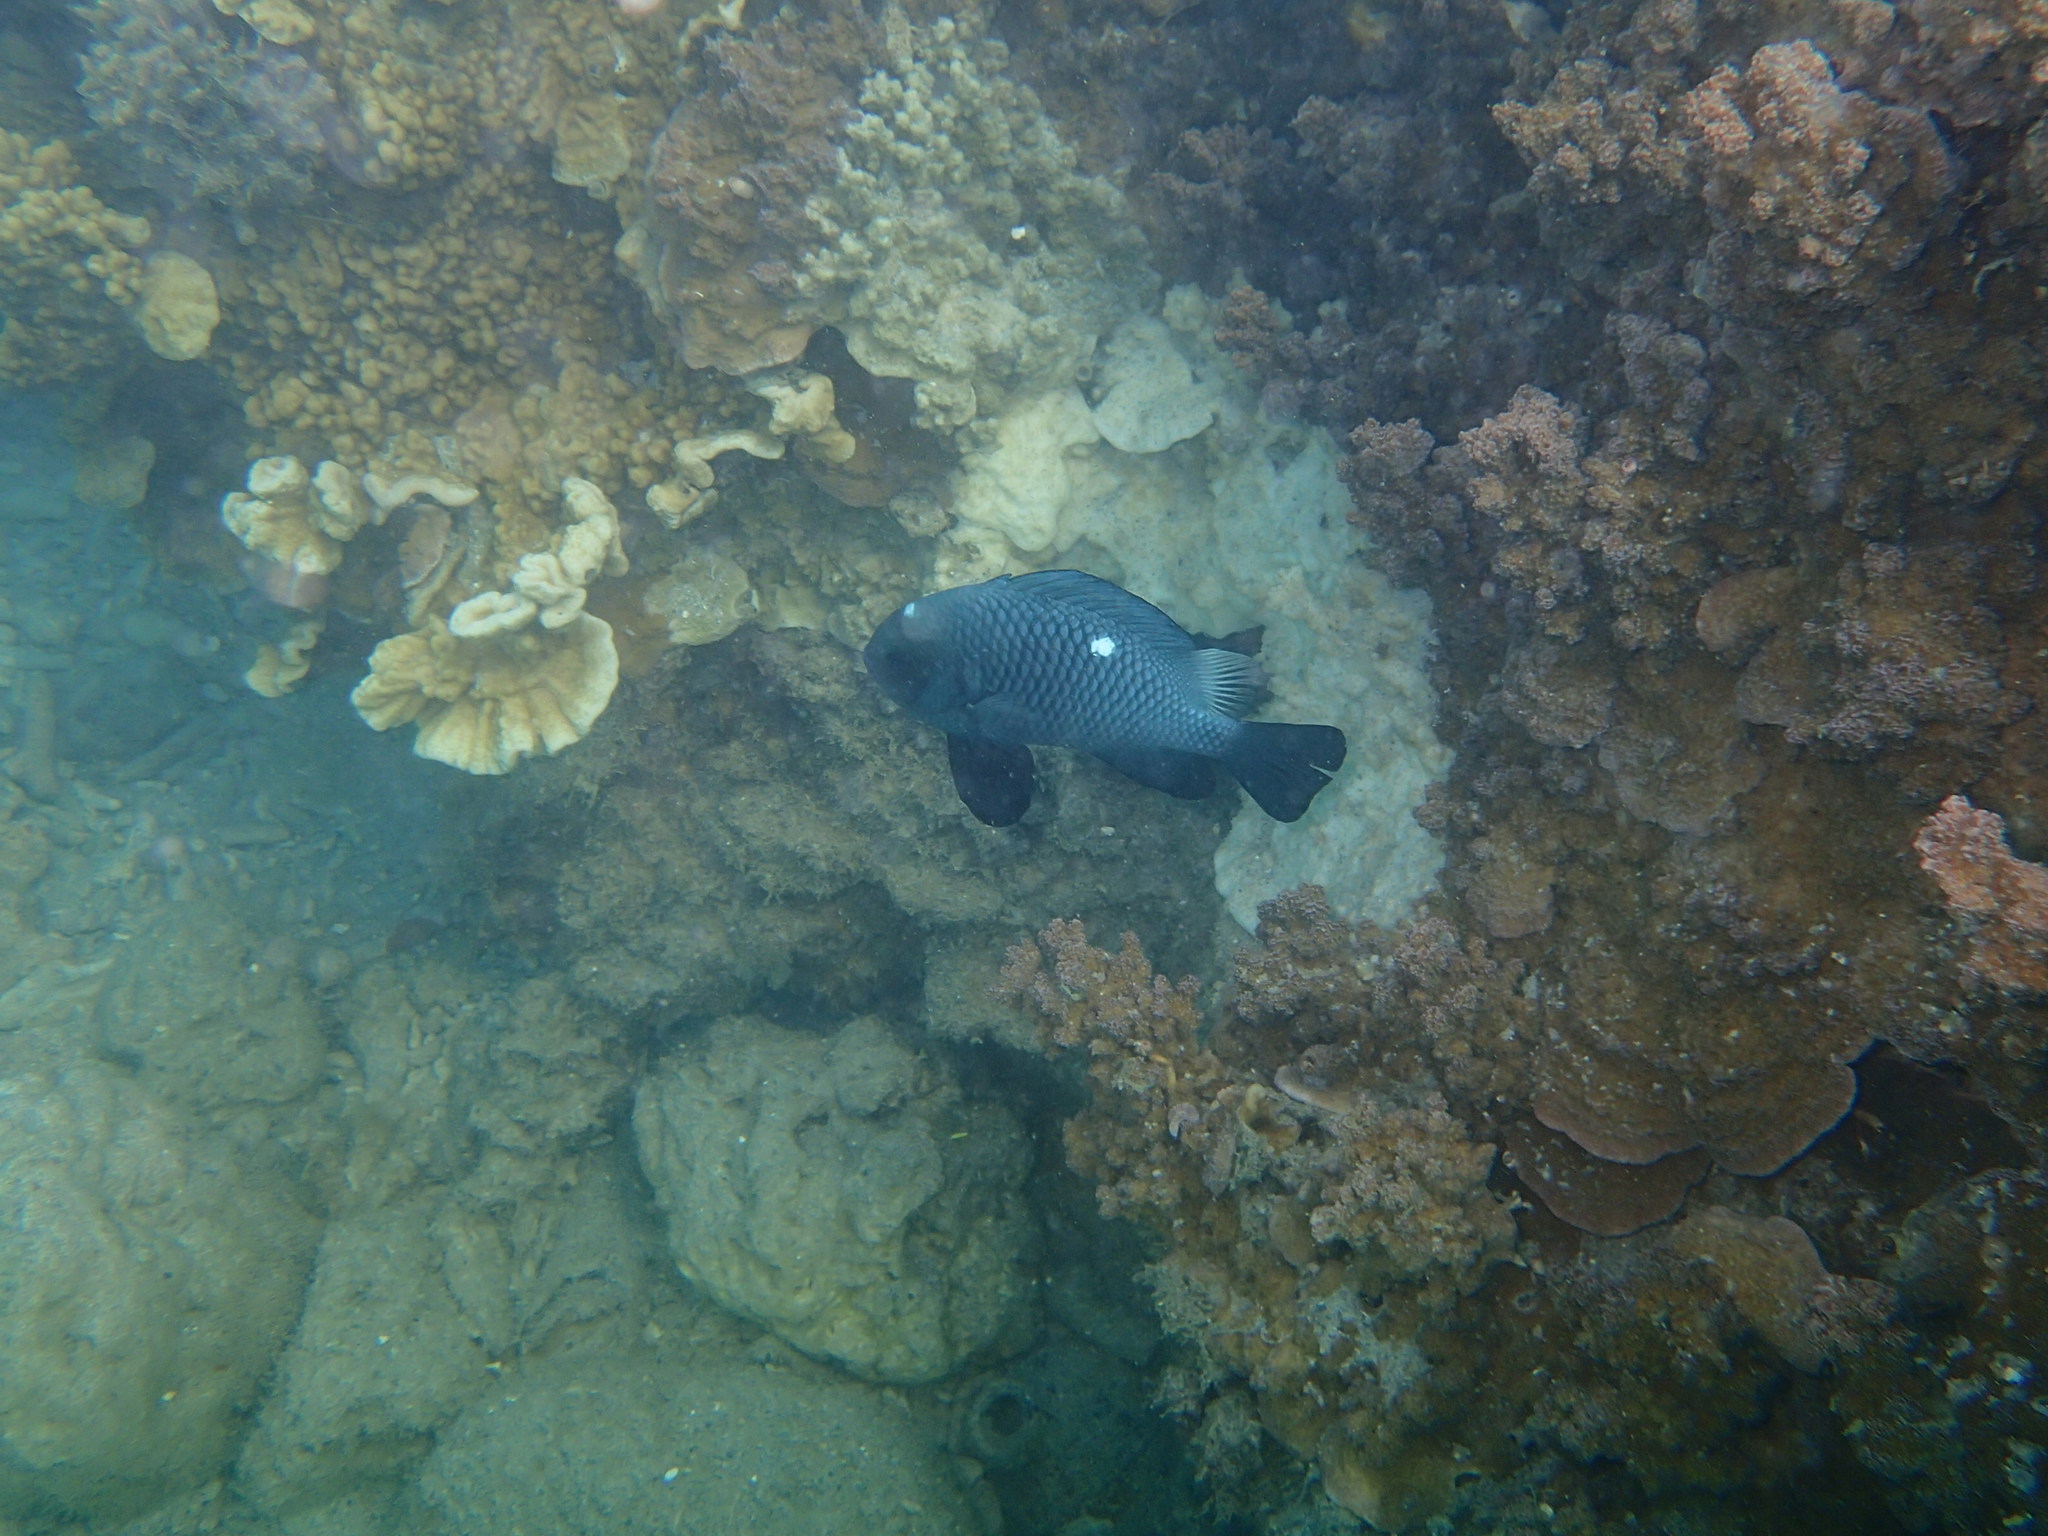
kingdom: Animalia
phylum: Chordata
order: Perciformes
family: Pomacentridae
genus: Dascyllus
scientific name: Dascyllus trimaculatus
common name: Threespot dascyllus
